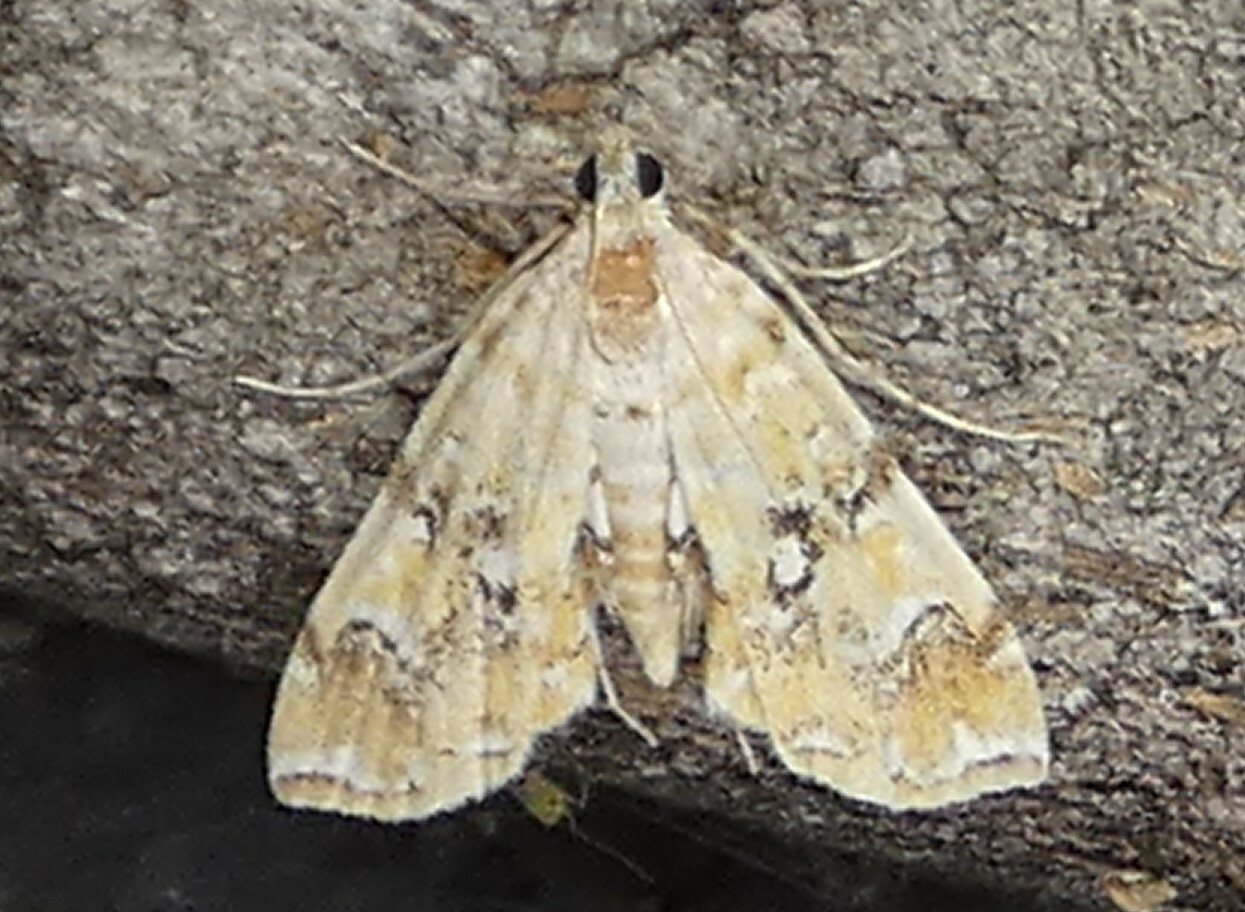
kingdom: Animalia
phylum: Arthropoda
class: Insecta
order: Lepidoptera
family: Crambidae
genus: Elophila
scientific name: Elophila faulalis
